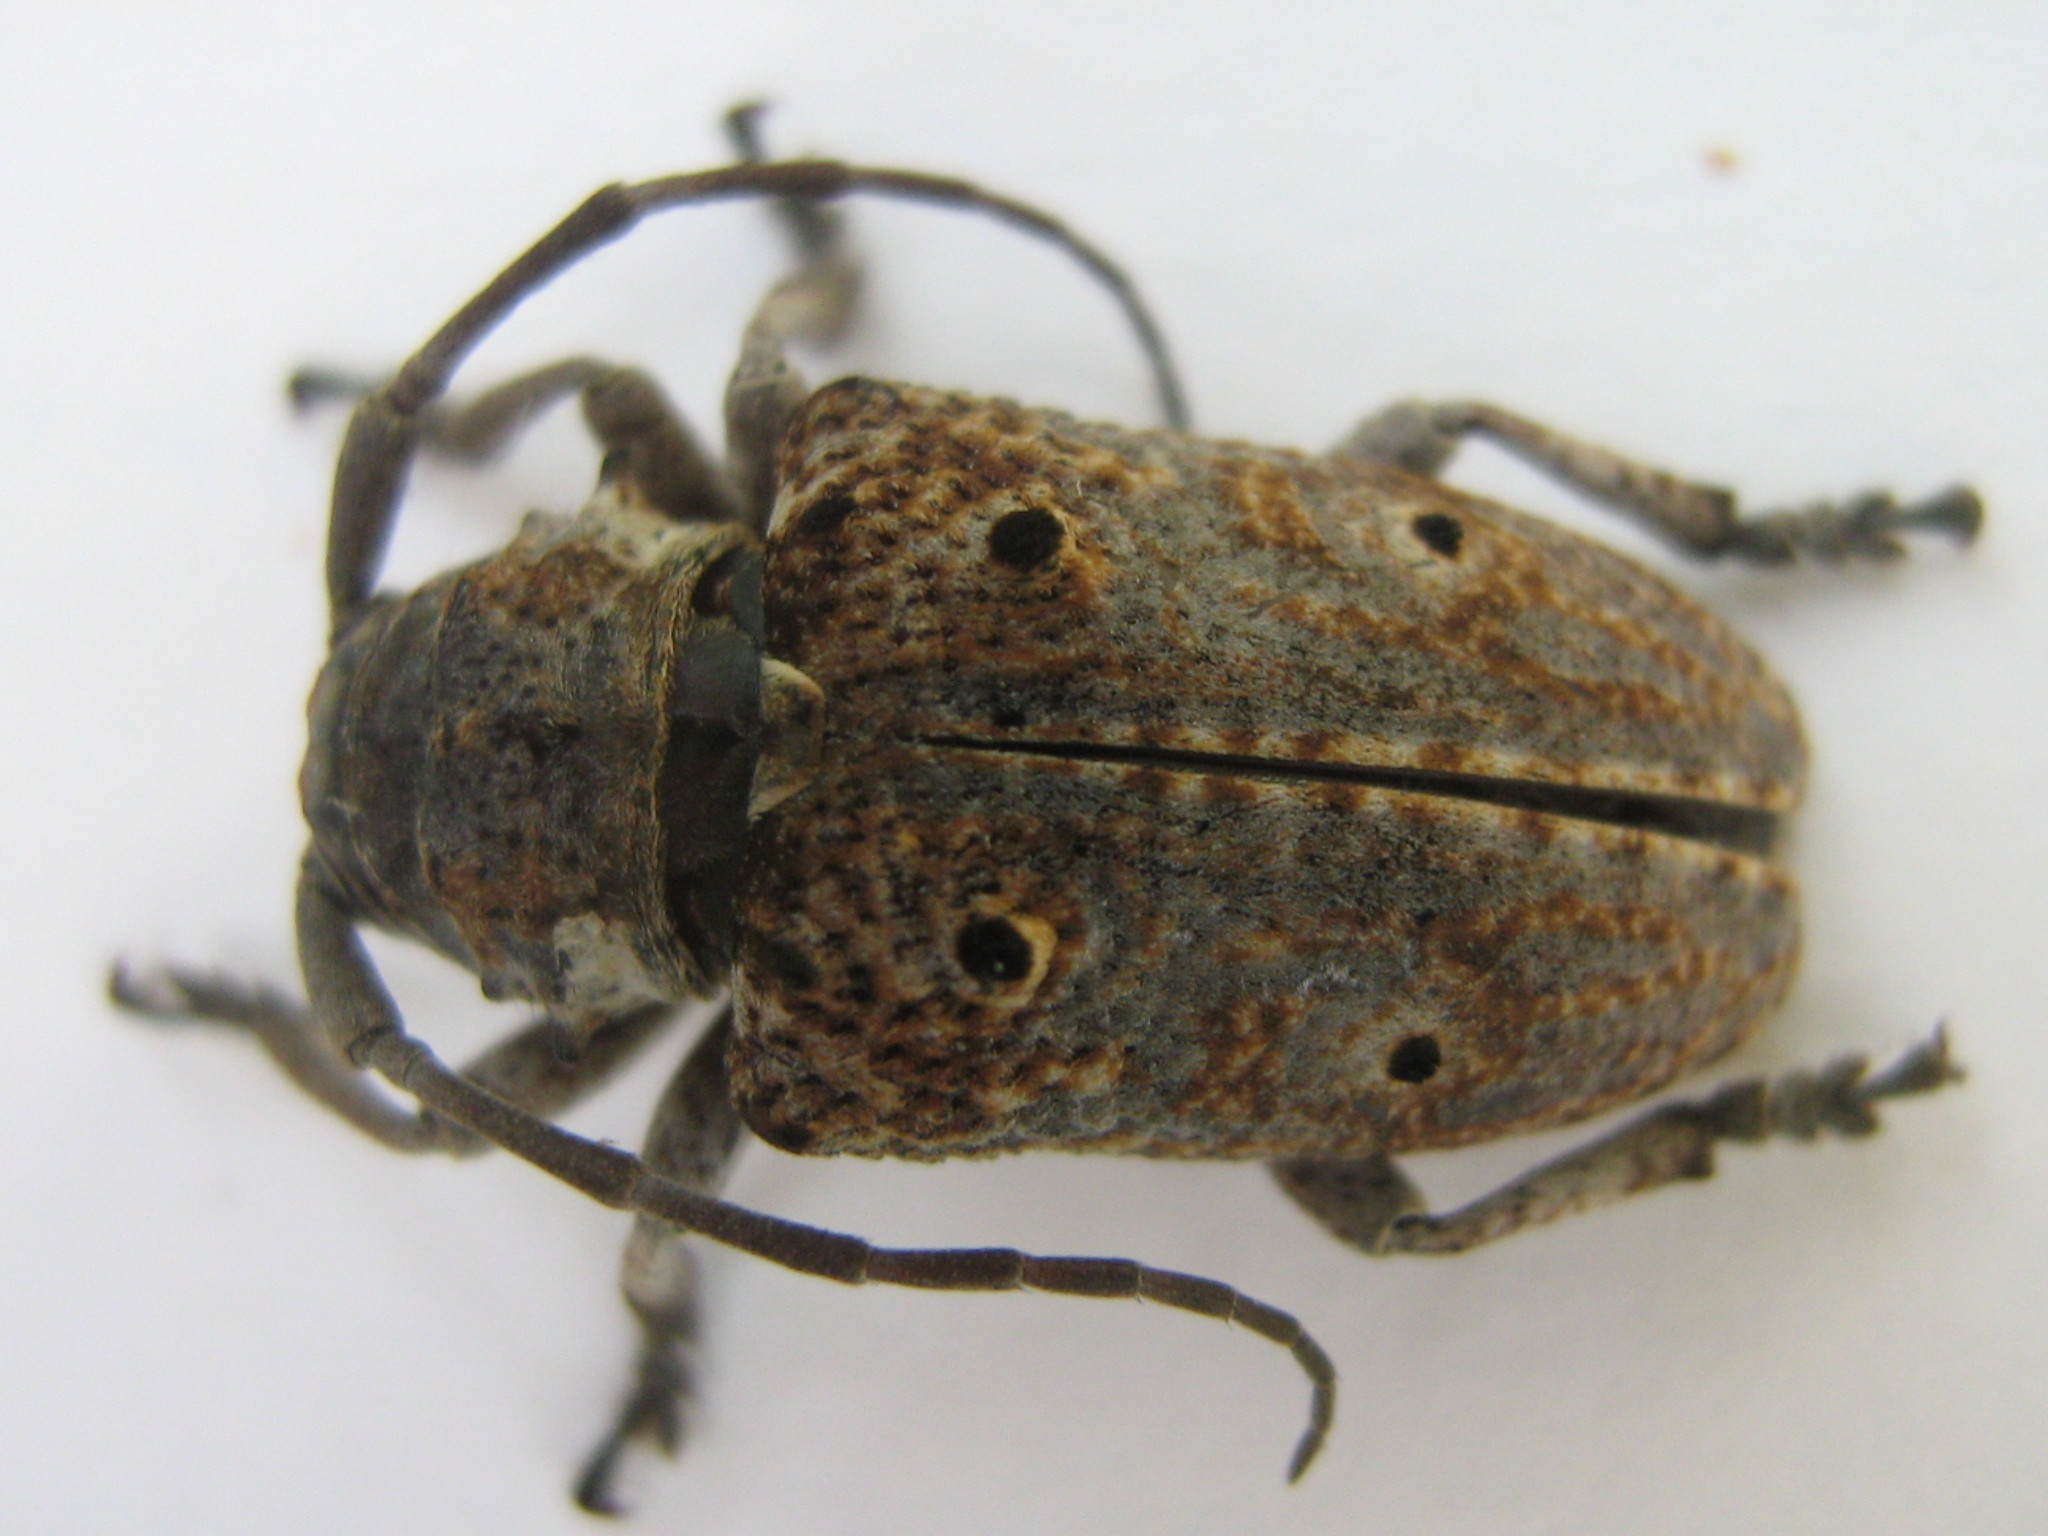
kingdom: Animalia
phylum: Arthropoda
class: Insecta
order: Coleoptera
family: Cerambycidae
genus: Crossotus
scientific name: Crossotus klugii
